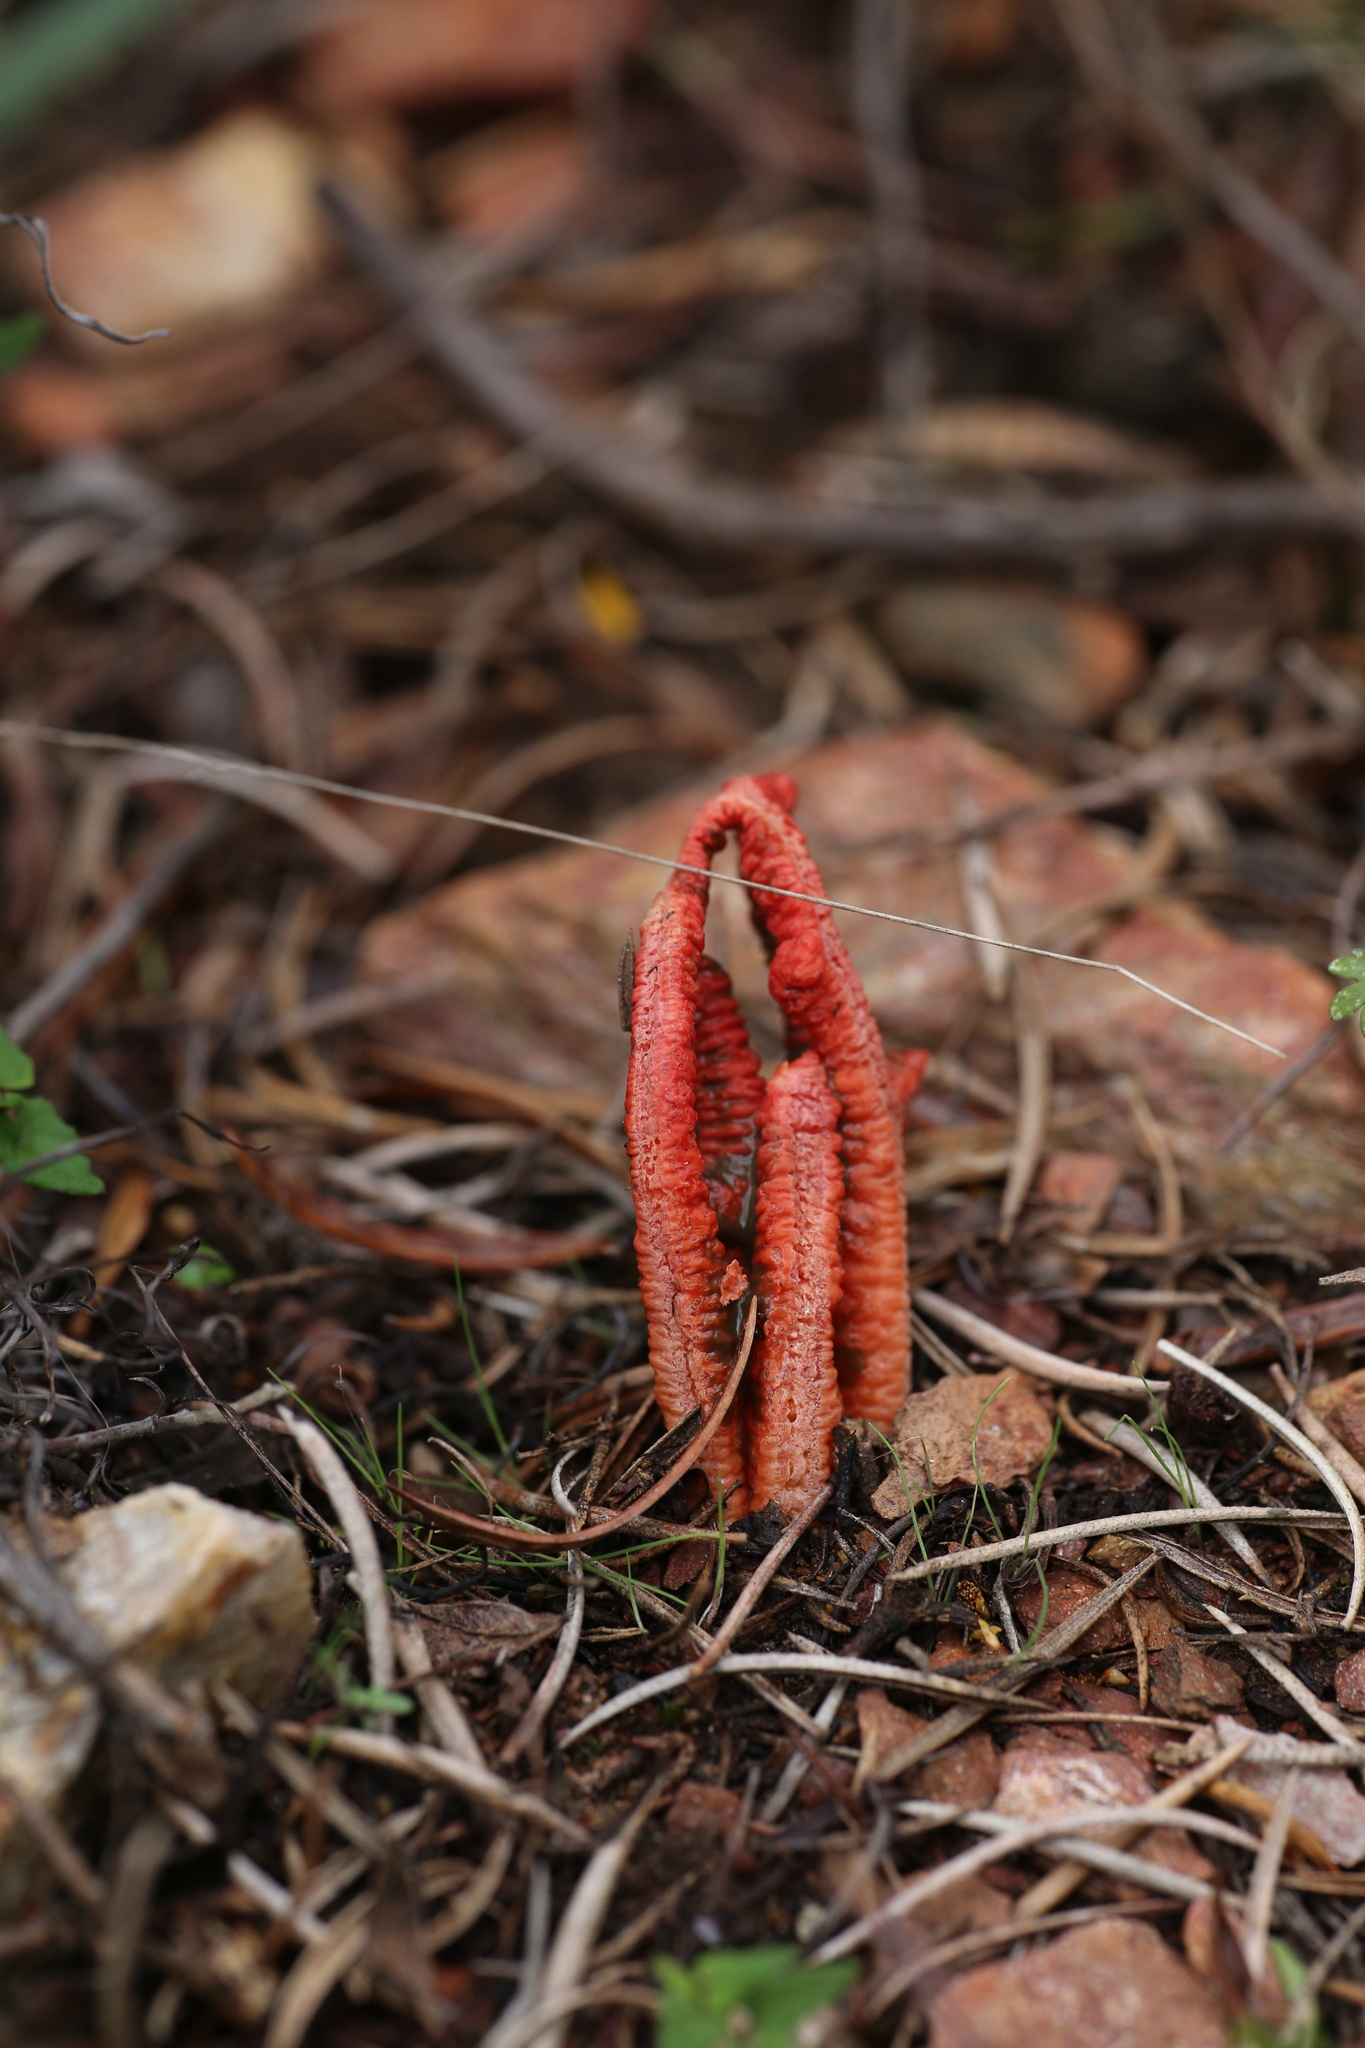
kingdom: Fungi
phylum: Basidiomycota
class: Agaricomycetes
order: Phallales
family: Phallaceae
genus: Colus
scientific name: Colus pusillus
